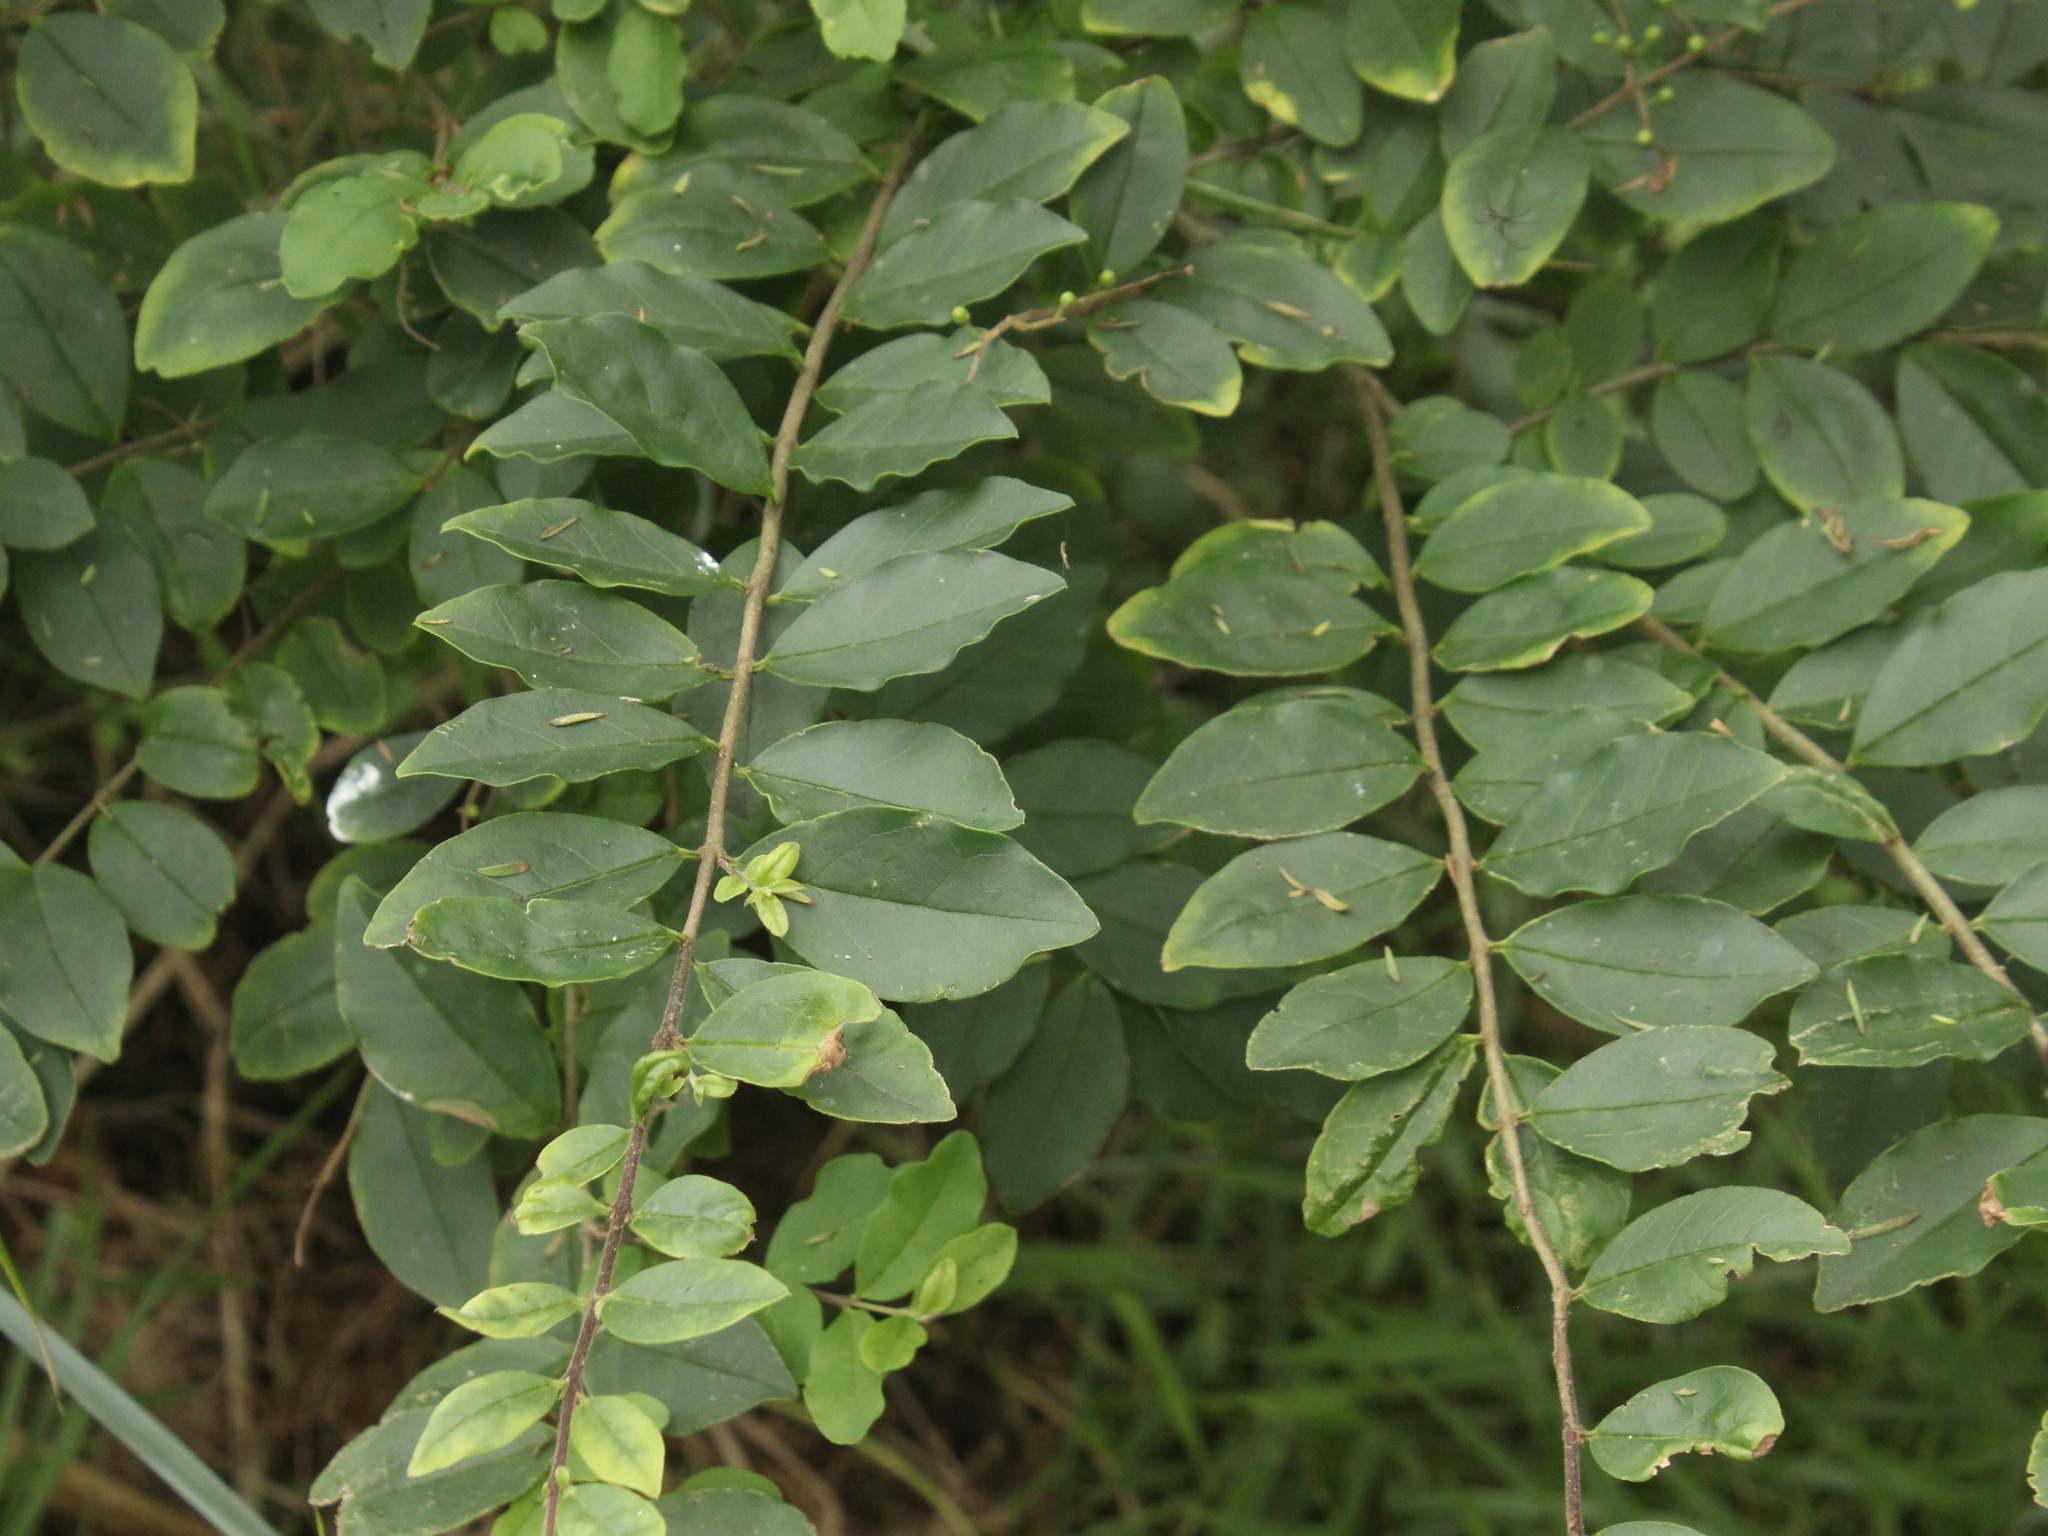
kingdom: Plantae
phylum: Tracheophyta
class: Magnoliopsida
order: Lamiales
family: Oleaceae
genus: Ligustrum
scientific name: Ligustrum sinense
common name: Chinese privet
